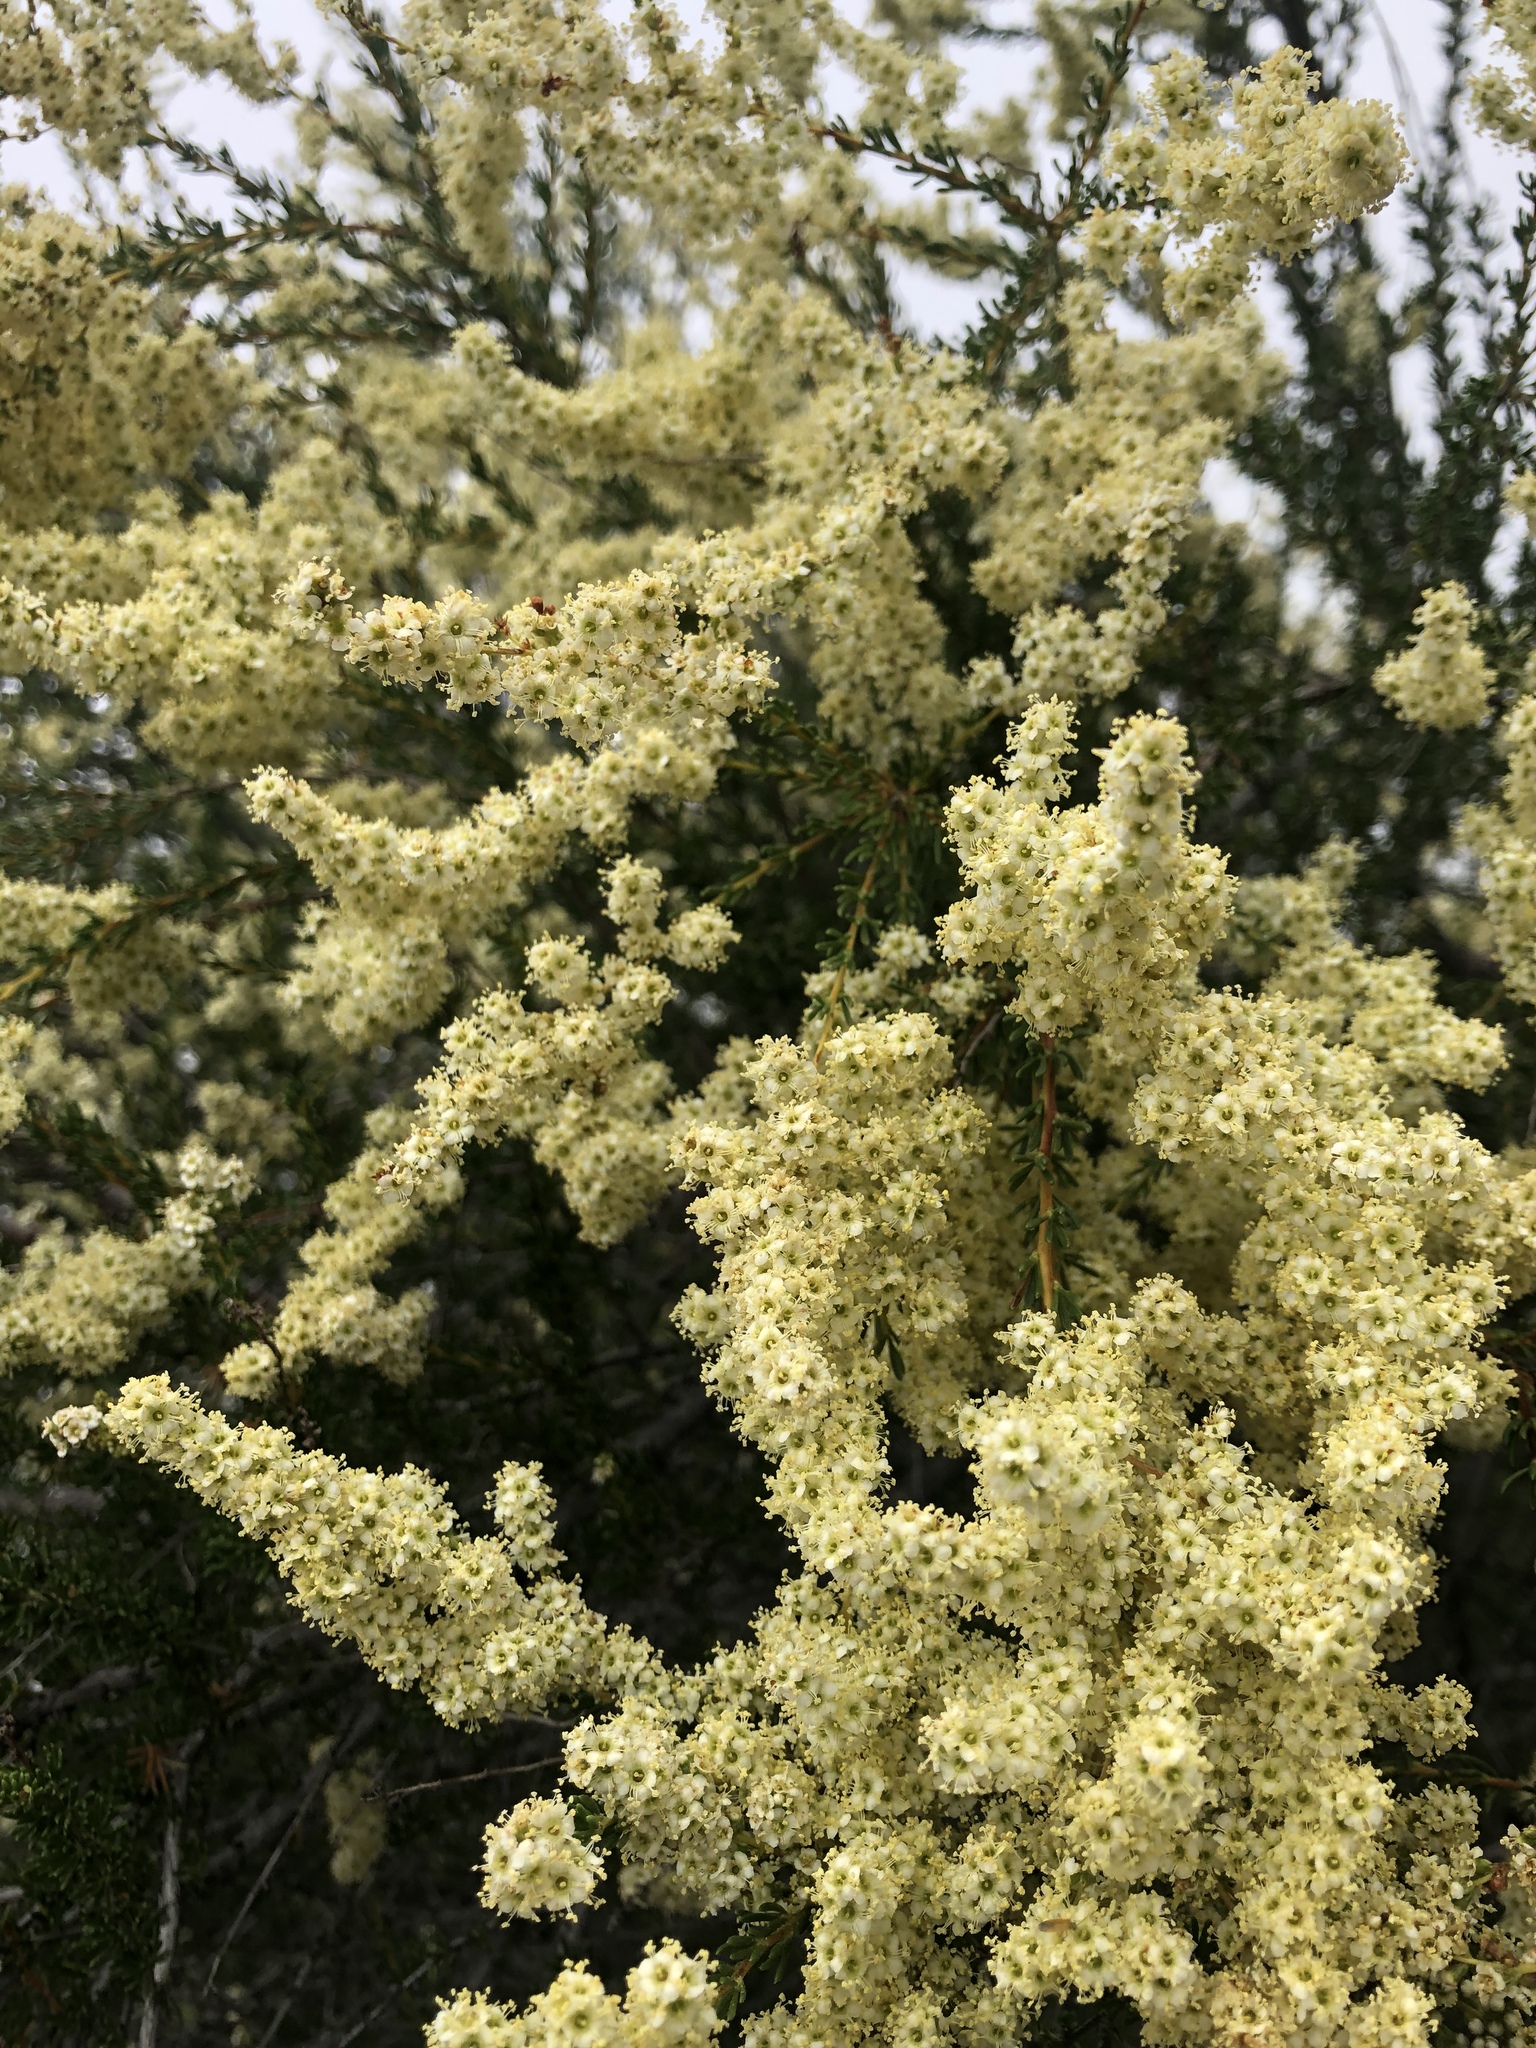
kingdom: Plantae
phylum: Tracheophyta
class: Magnoliopsida
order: Rosales
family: Rosaceae
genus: Adenostoma
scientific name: Adenostoma fasciculatum
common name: Chamise
